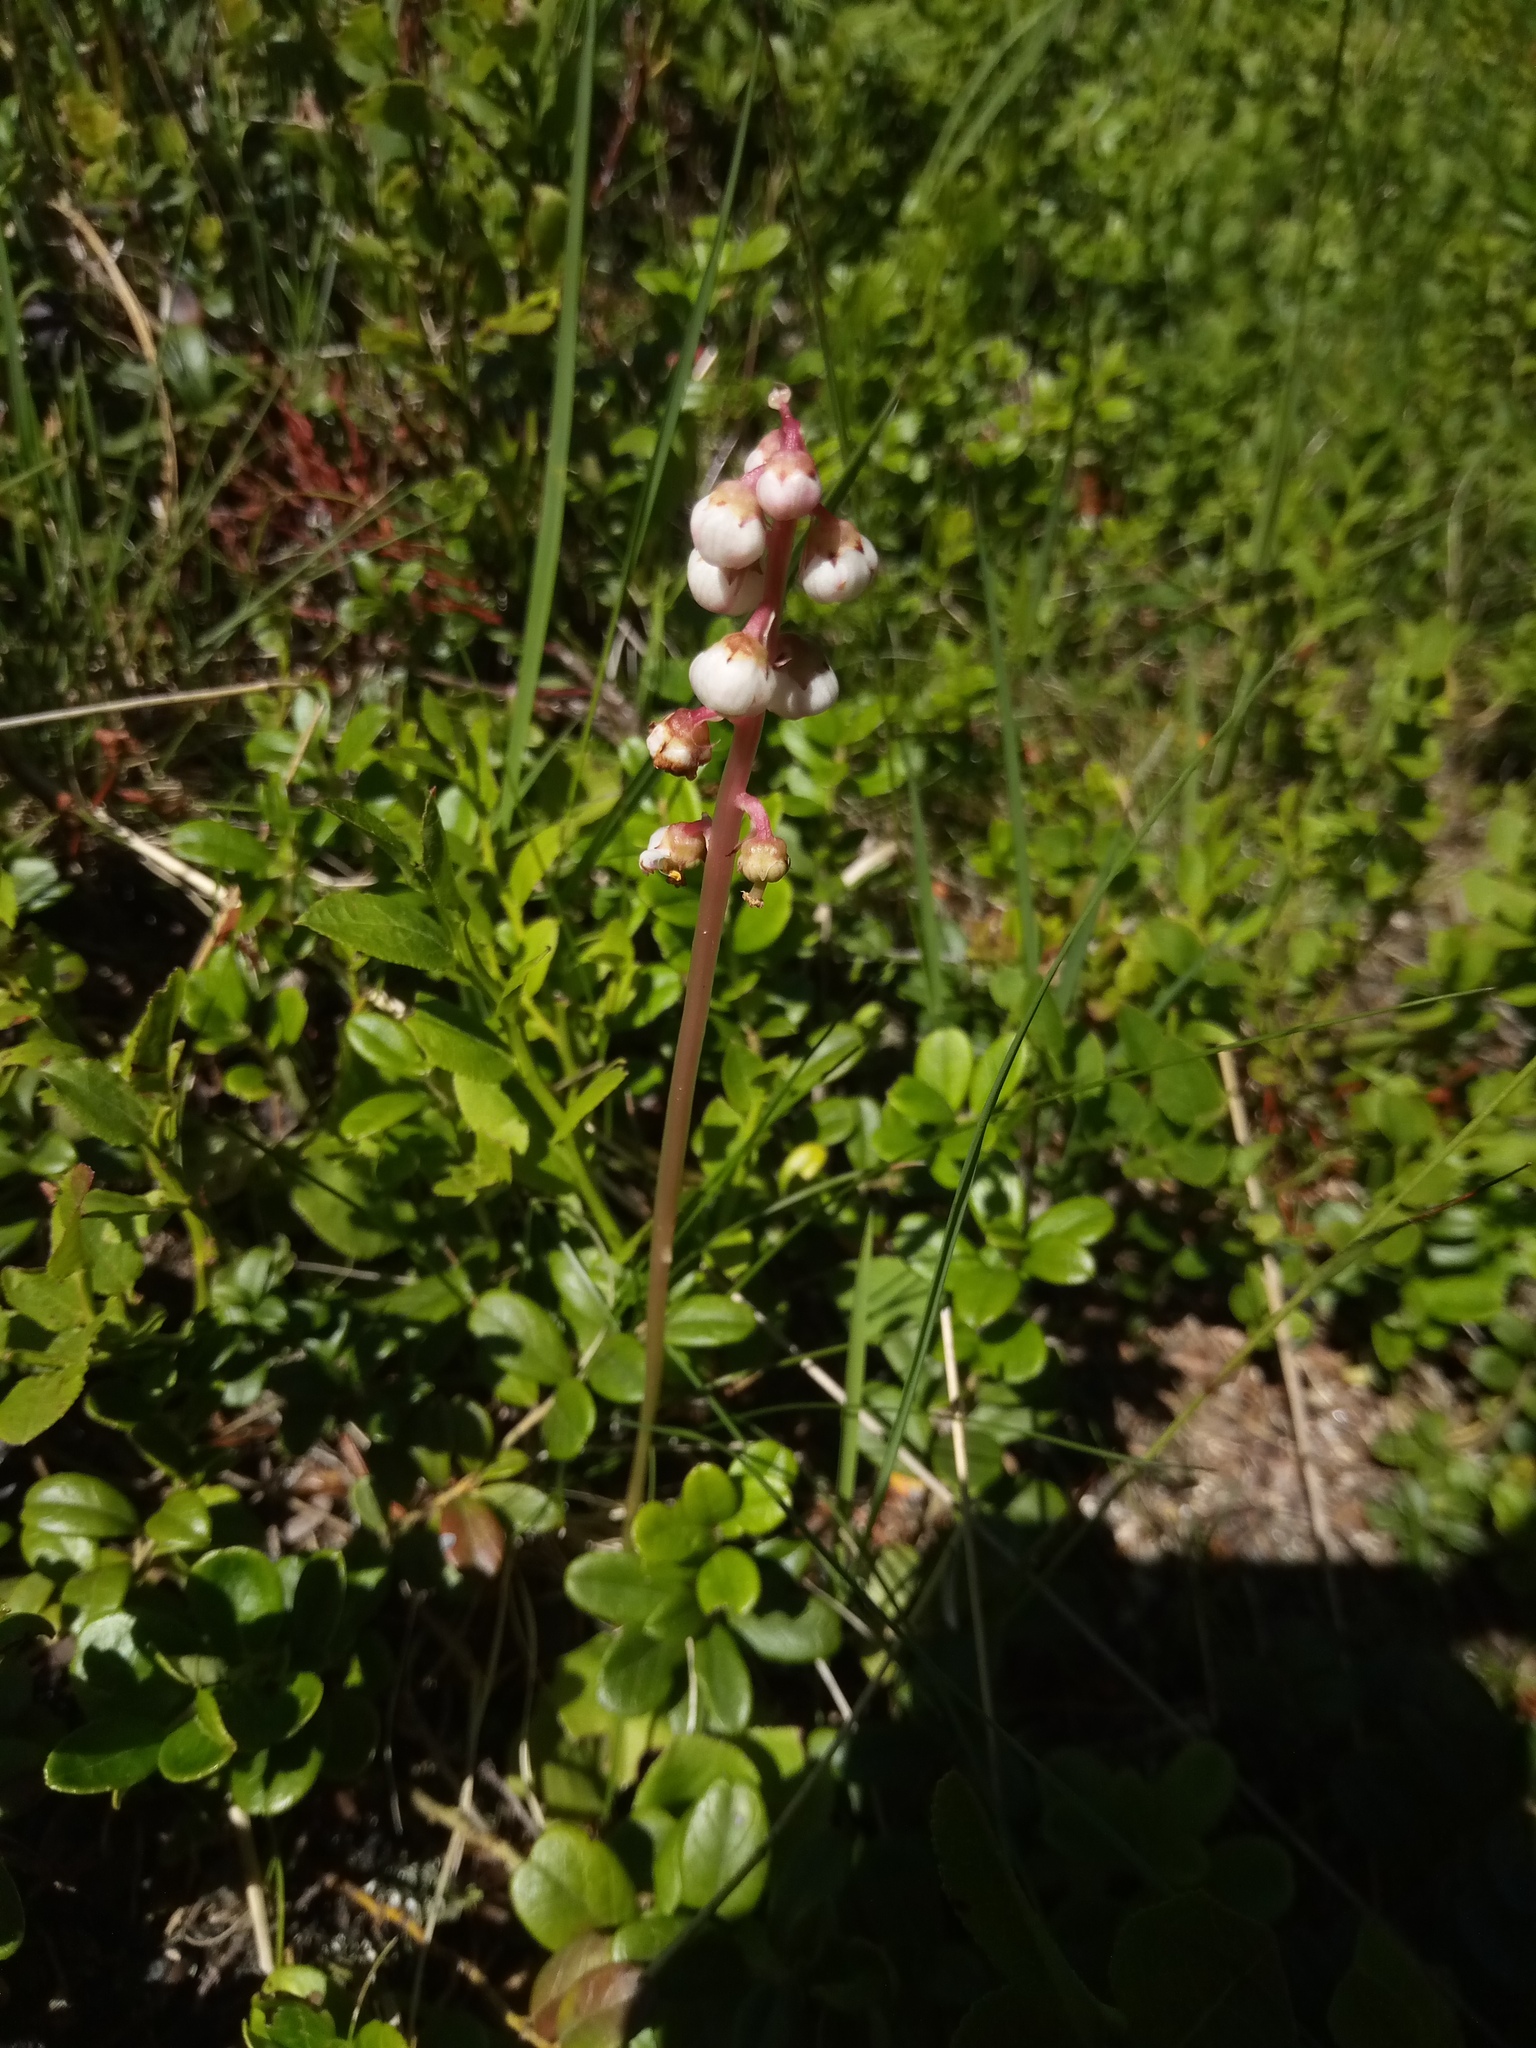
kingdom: Plantae
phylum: Tracheophyta
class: Magnoliopsida
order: Ericales
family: Ericaceae
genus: Pyrola
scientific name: Pyrola minor
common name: Common wintergreen
